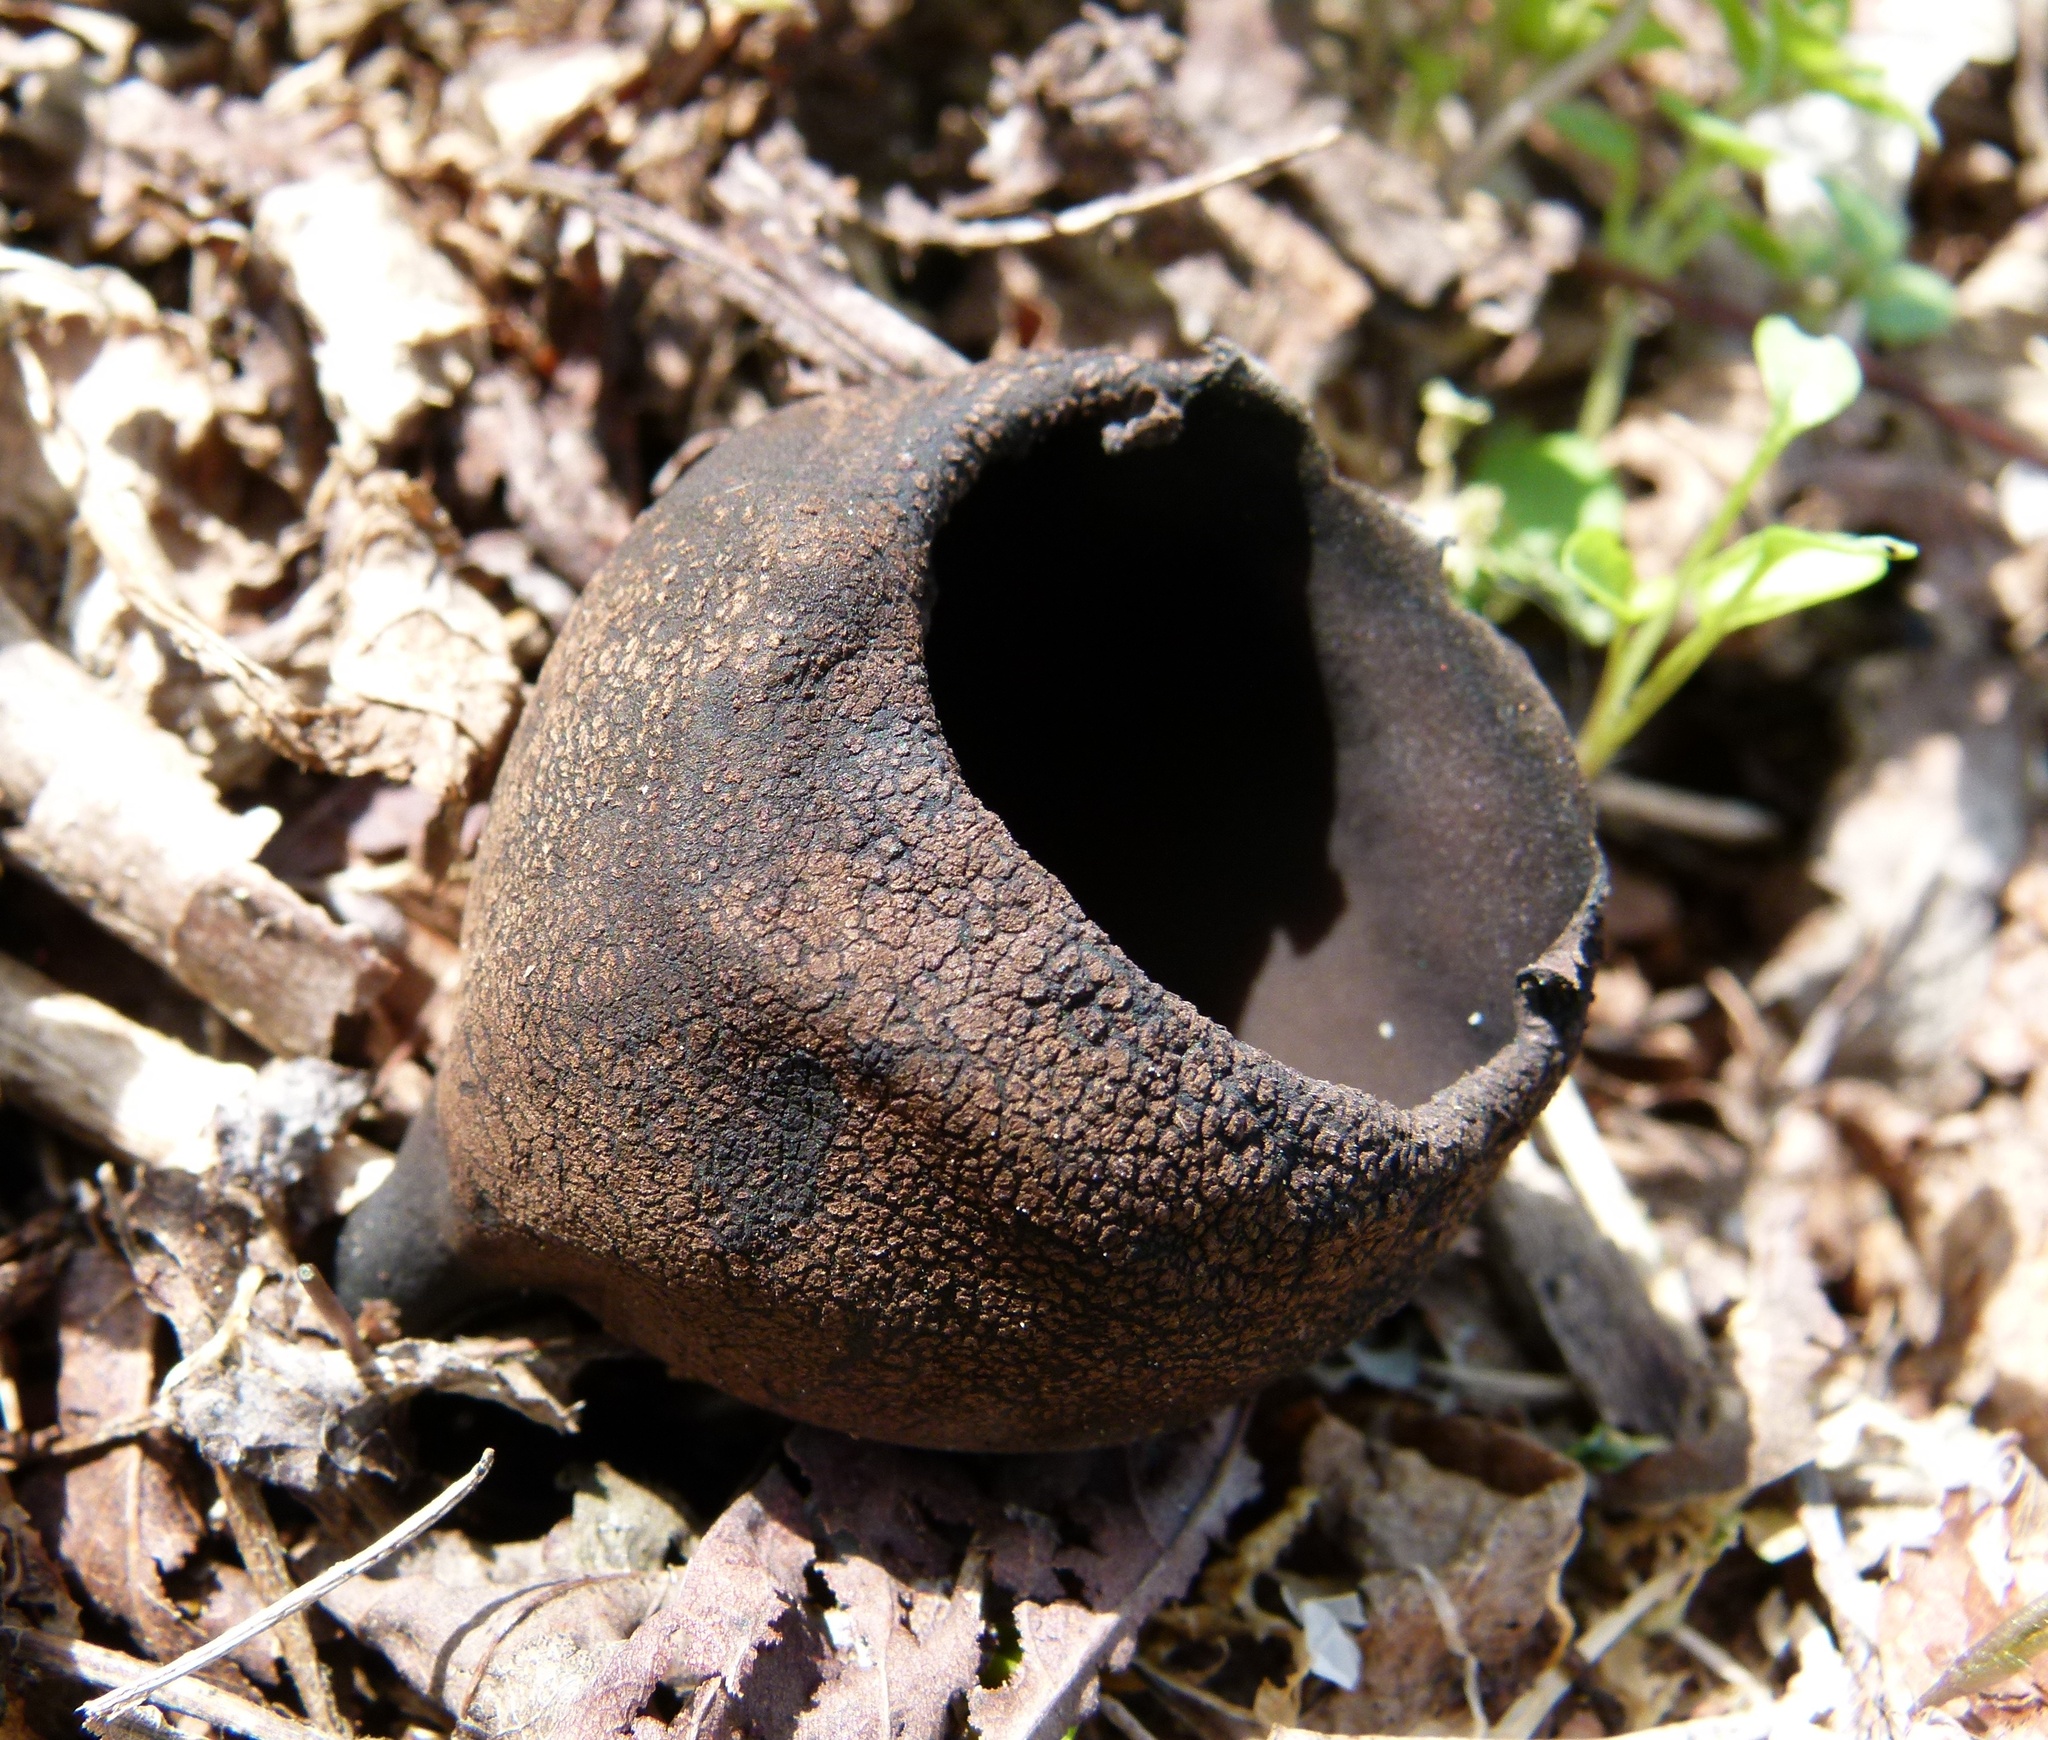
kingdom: Fungi
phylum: Ascomycota
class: Pezizomycetes
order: Pezizales
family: Sarcosomataceae
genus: Urnula
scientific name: Urnula craterium
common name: Devil's urn
